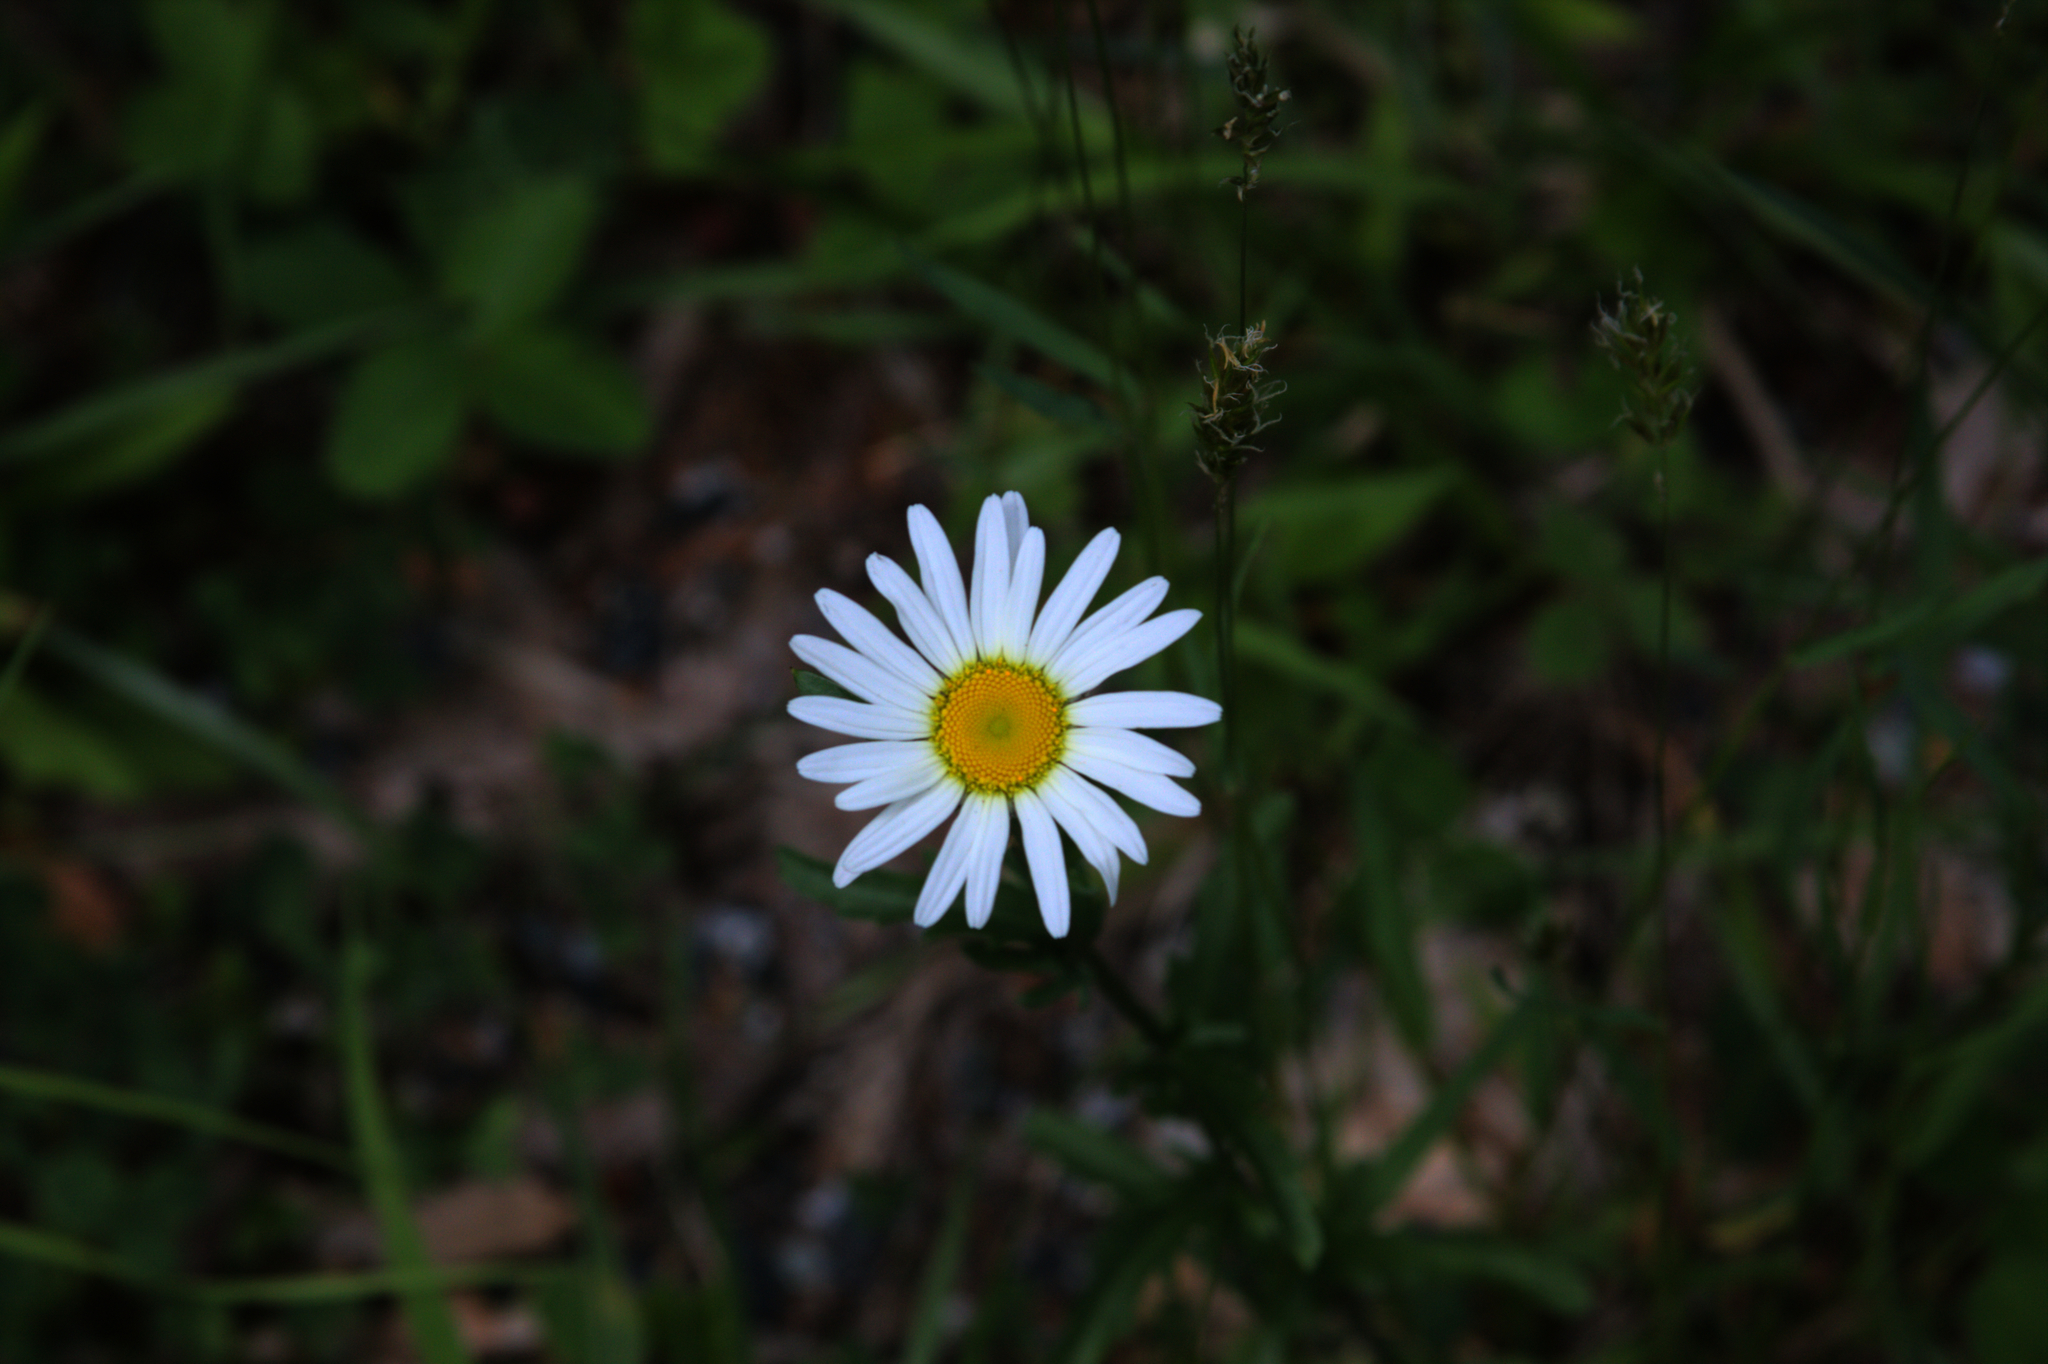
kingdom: Plantae
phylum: Tracheophyta
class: Magnoliopsida
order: Asterales
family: Asteraceae
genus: Leucanthemum
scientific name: Leucanthemum vulgare
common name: Oxeye daisy
